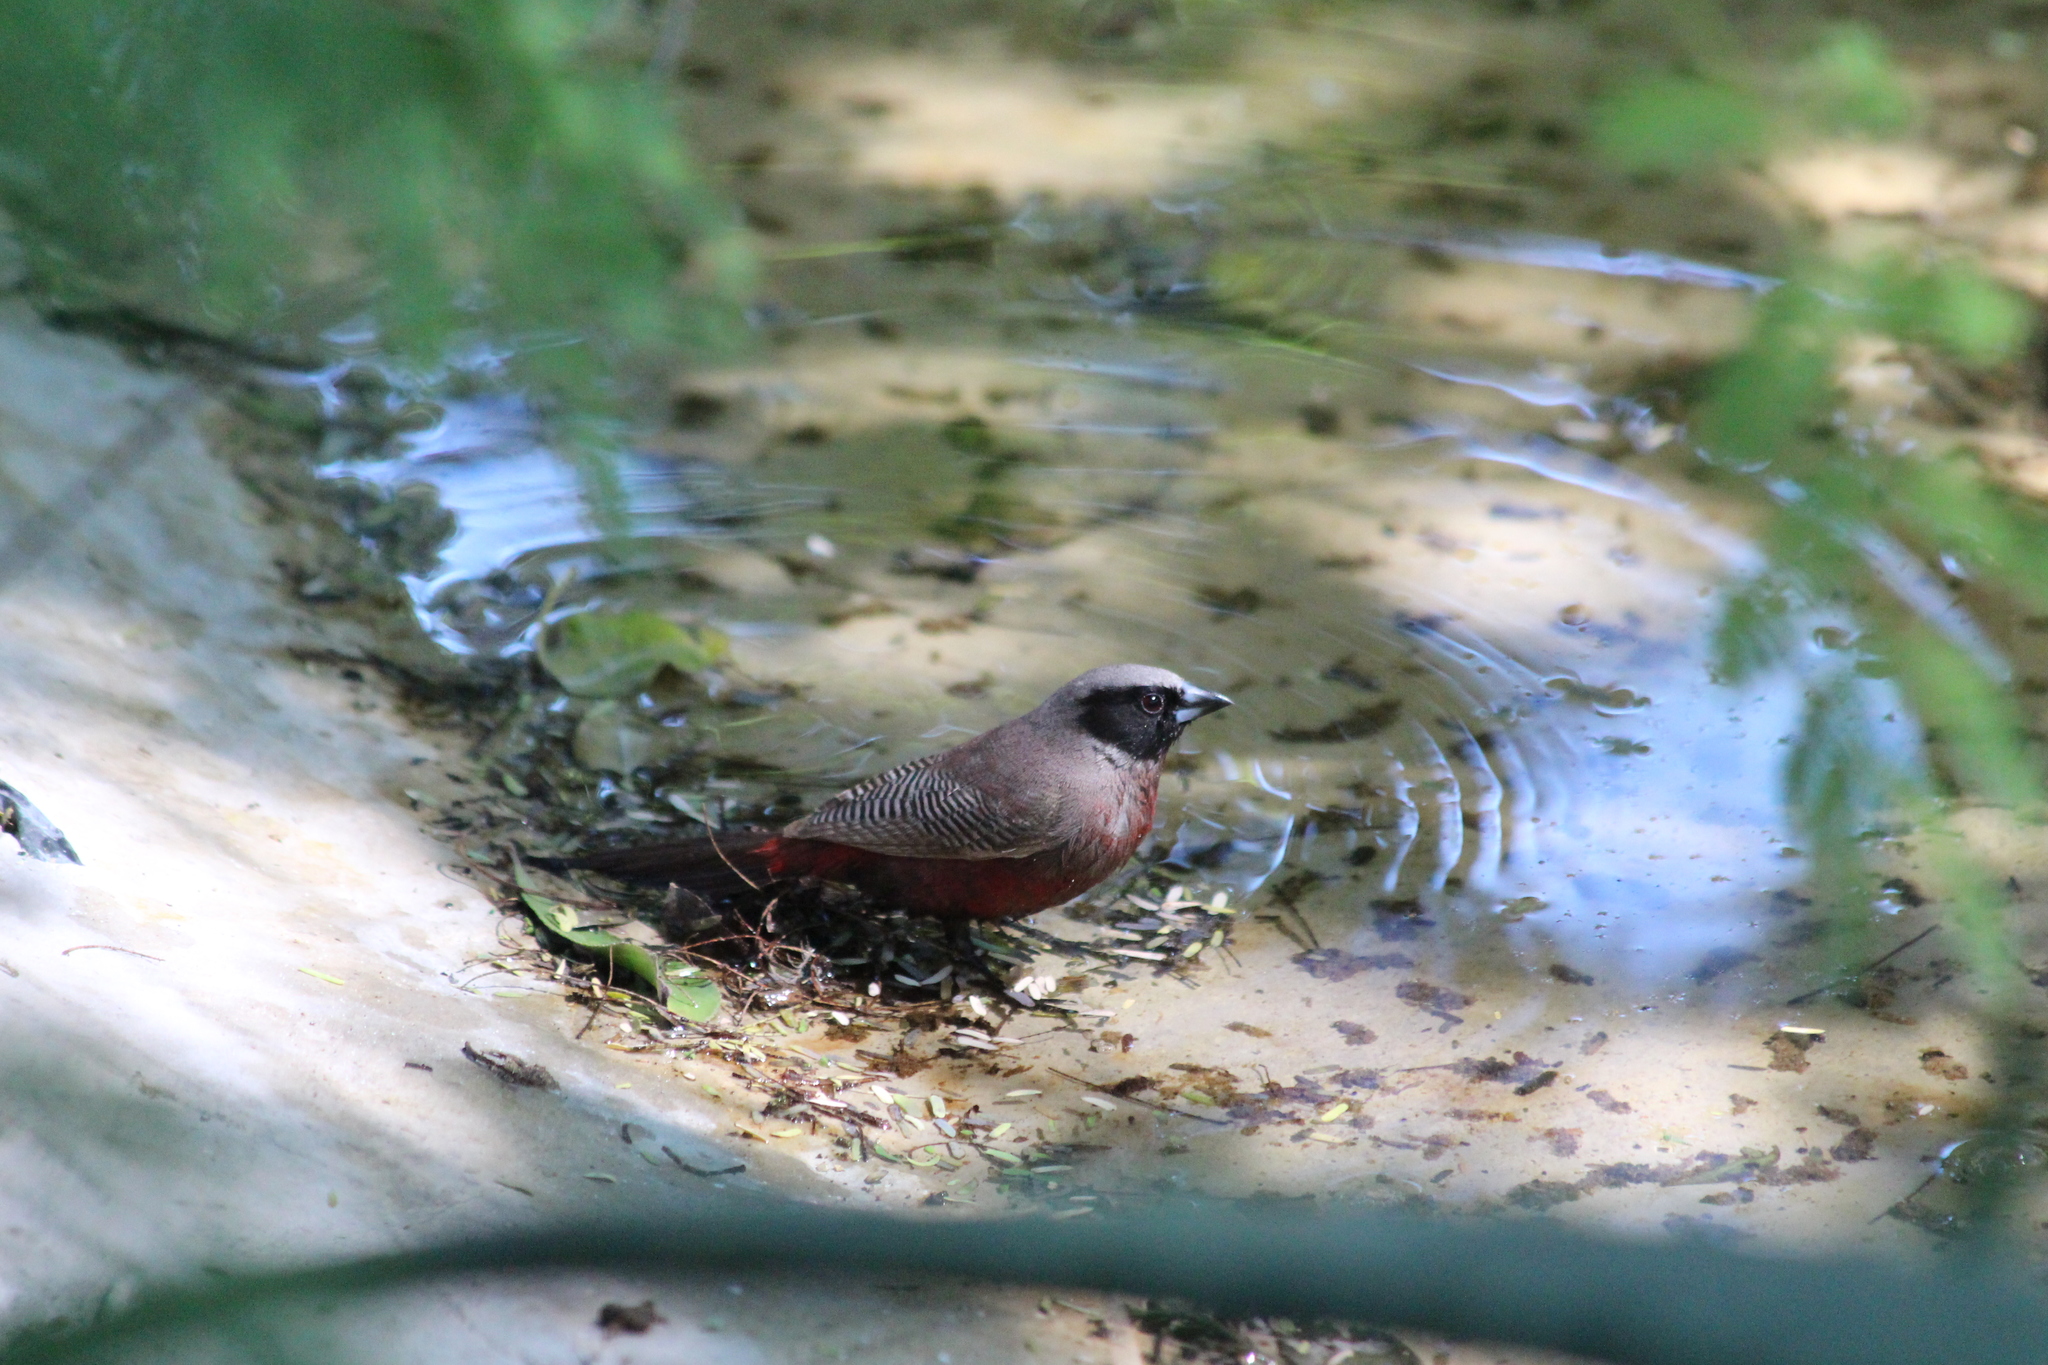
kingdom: Animalia
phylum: Chordata
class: Aves
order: Passeriformes
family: Estrildidae
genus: Estrilda
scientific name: Estrilda erythronotos
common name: Black-faced waxbill
